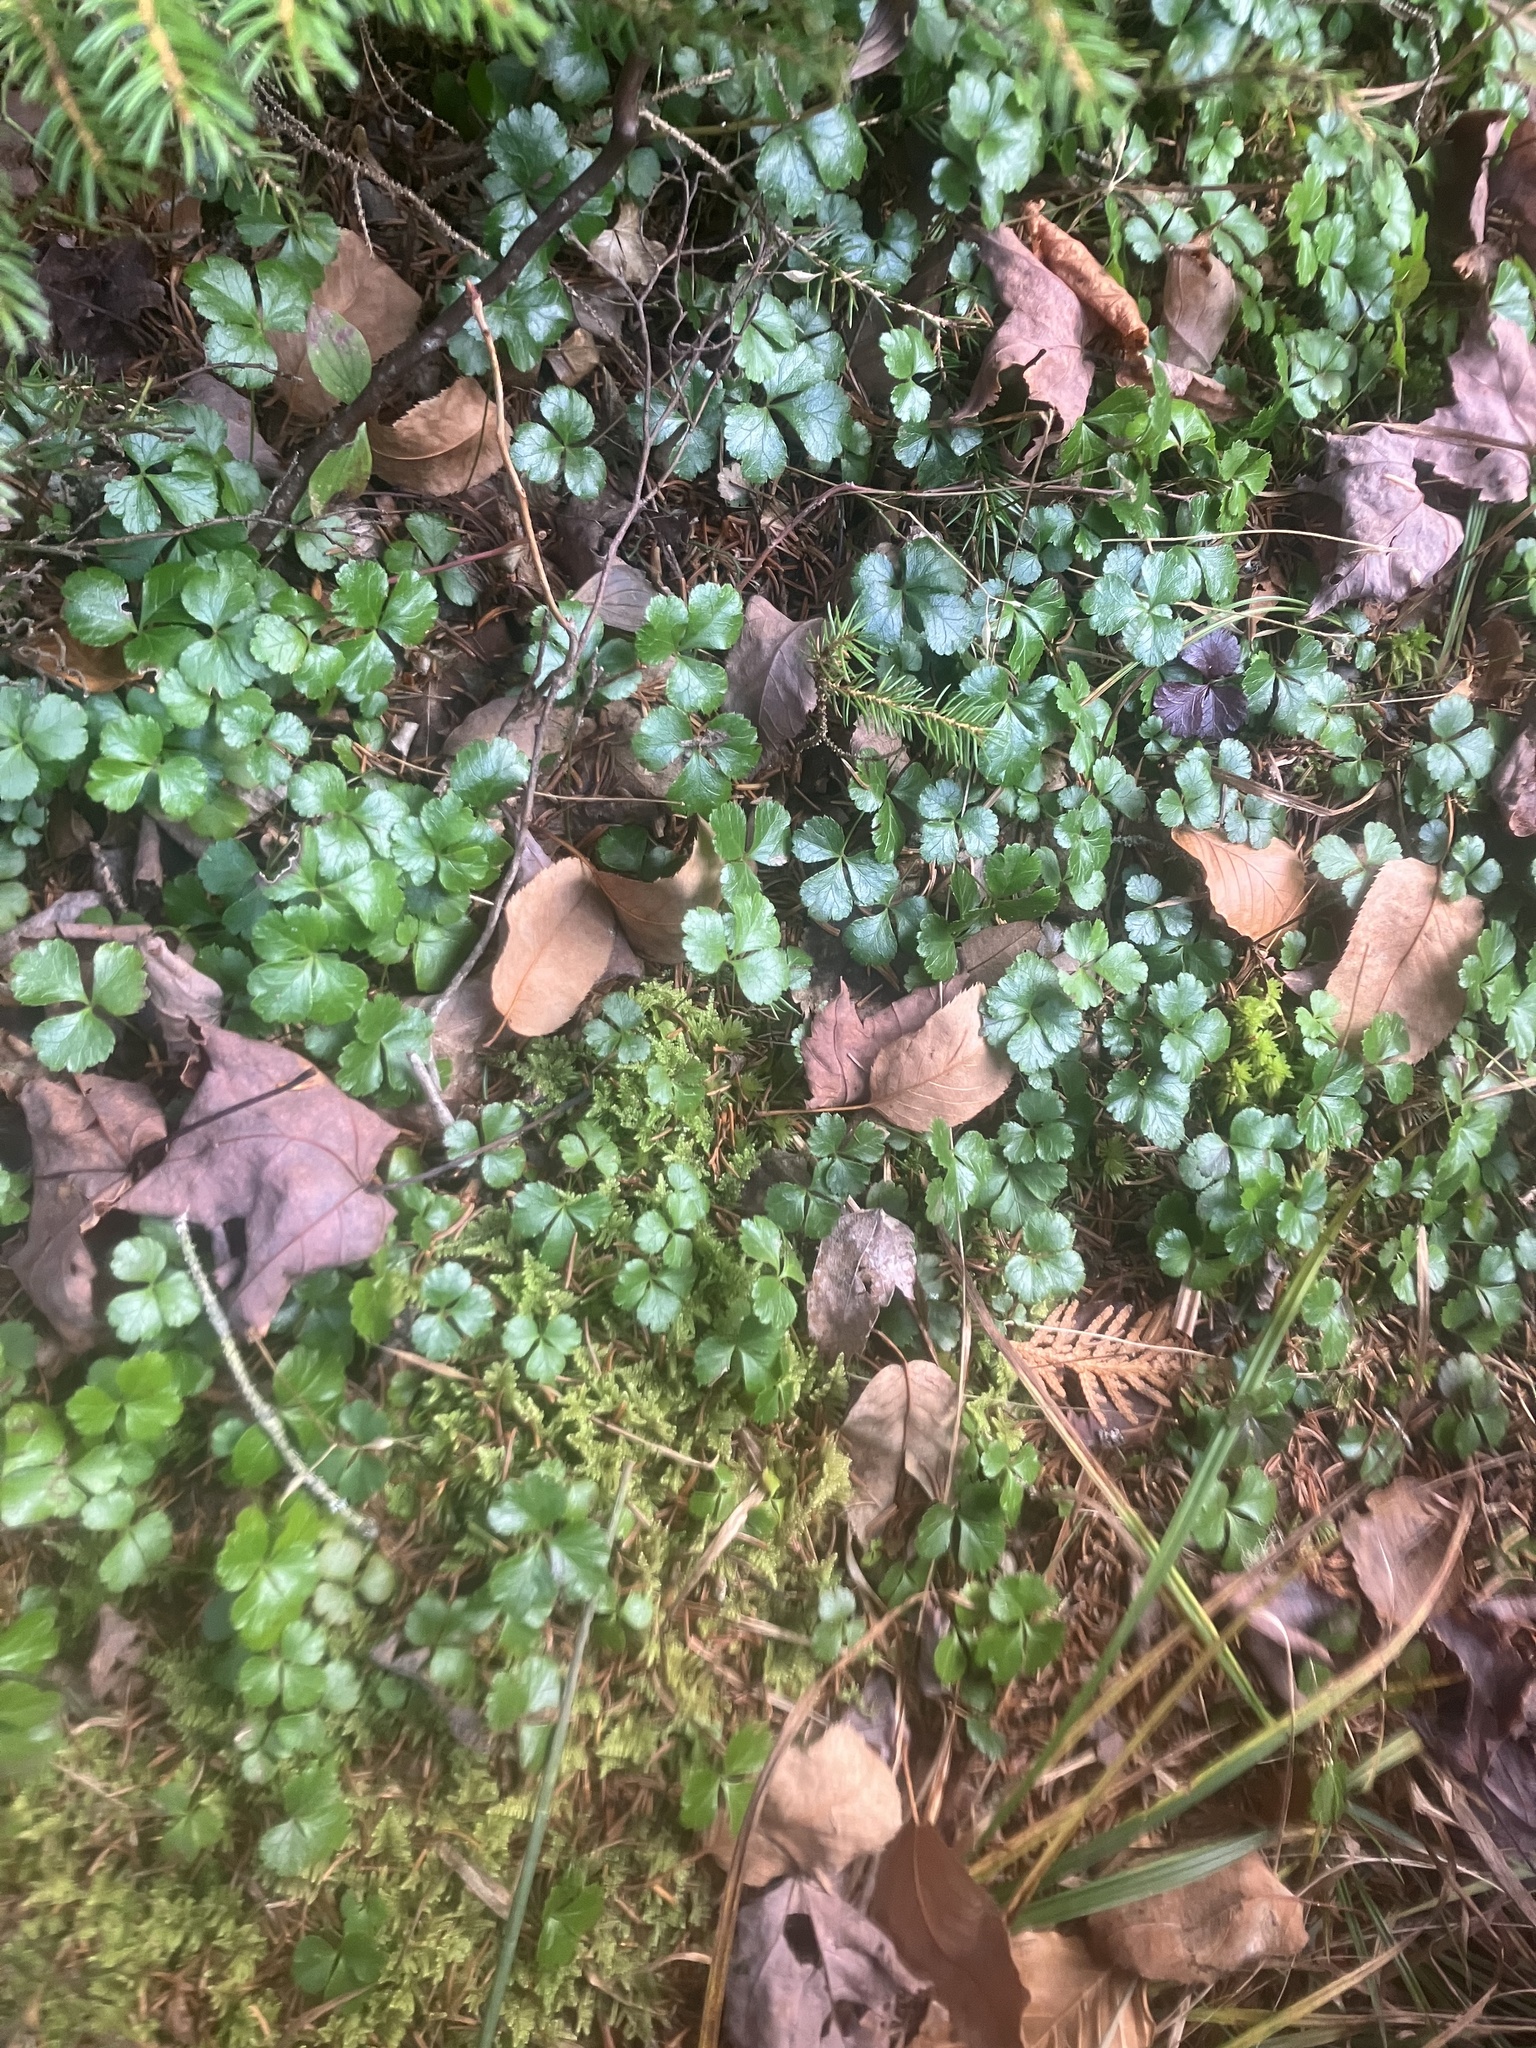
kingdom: Plantae
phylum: Tracheophyta
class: Magnoliopsida
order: Ranunculales
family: Ranunculaceae
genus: Coptis
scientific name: Coptis trifolia
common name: Canker-root
